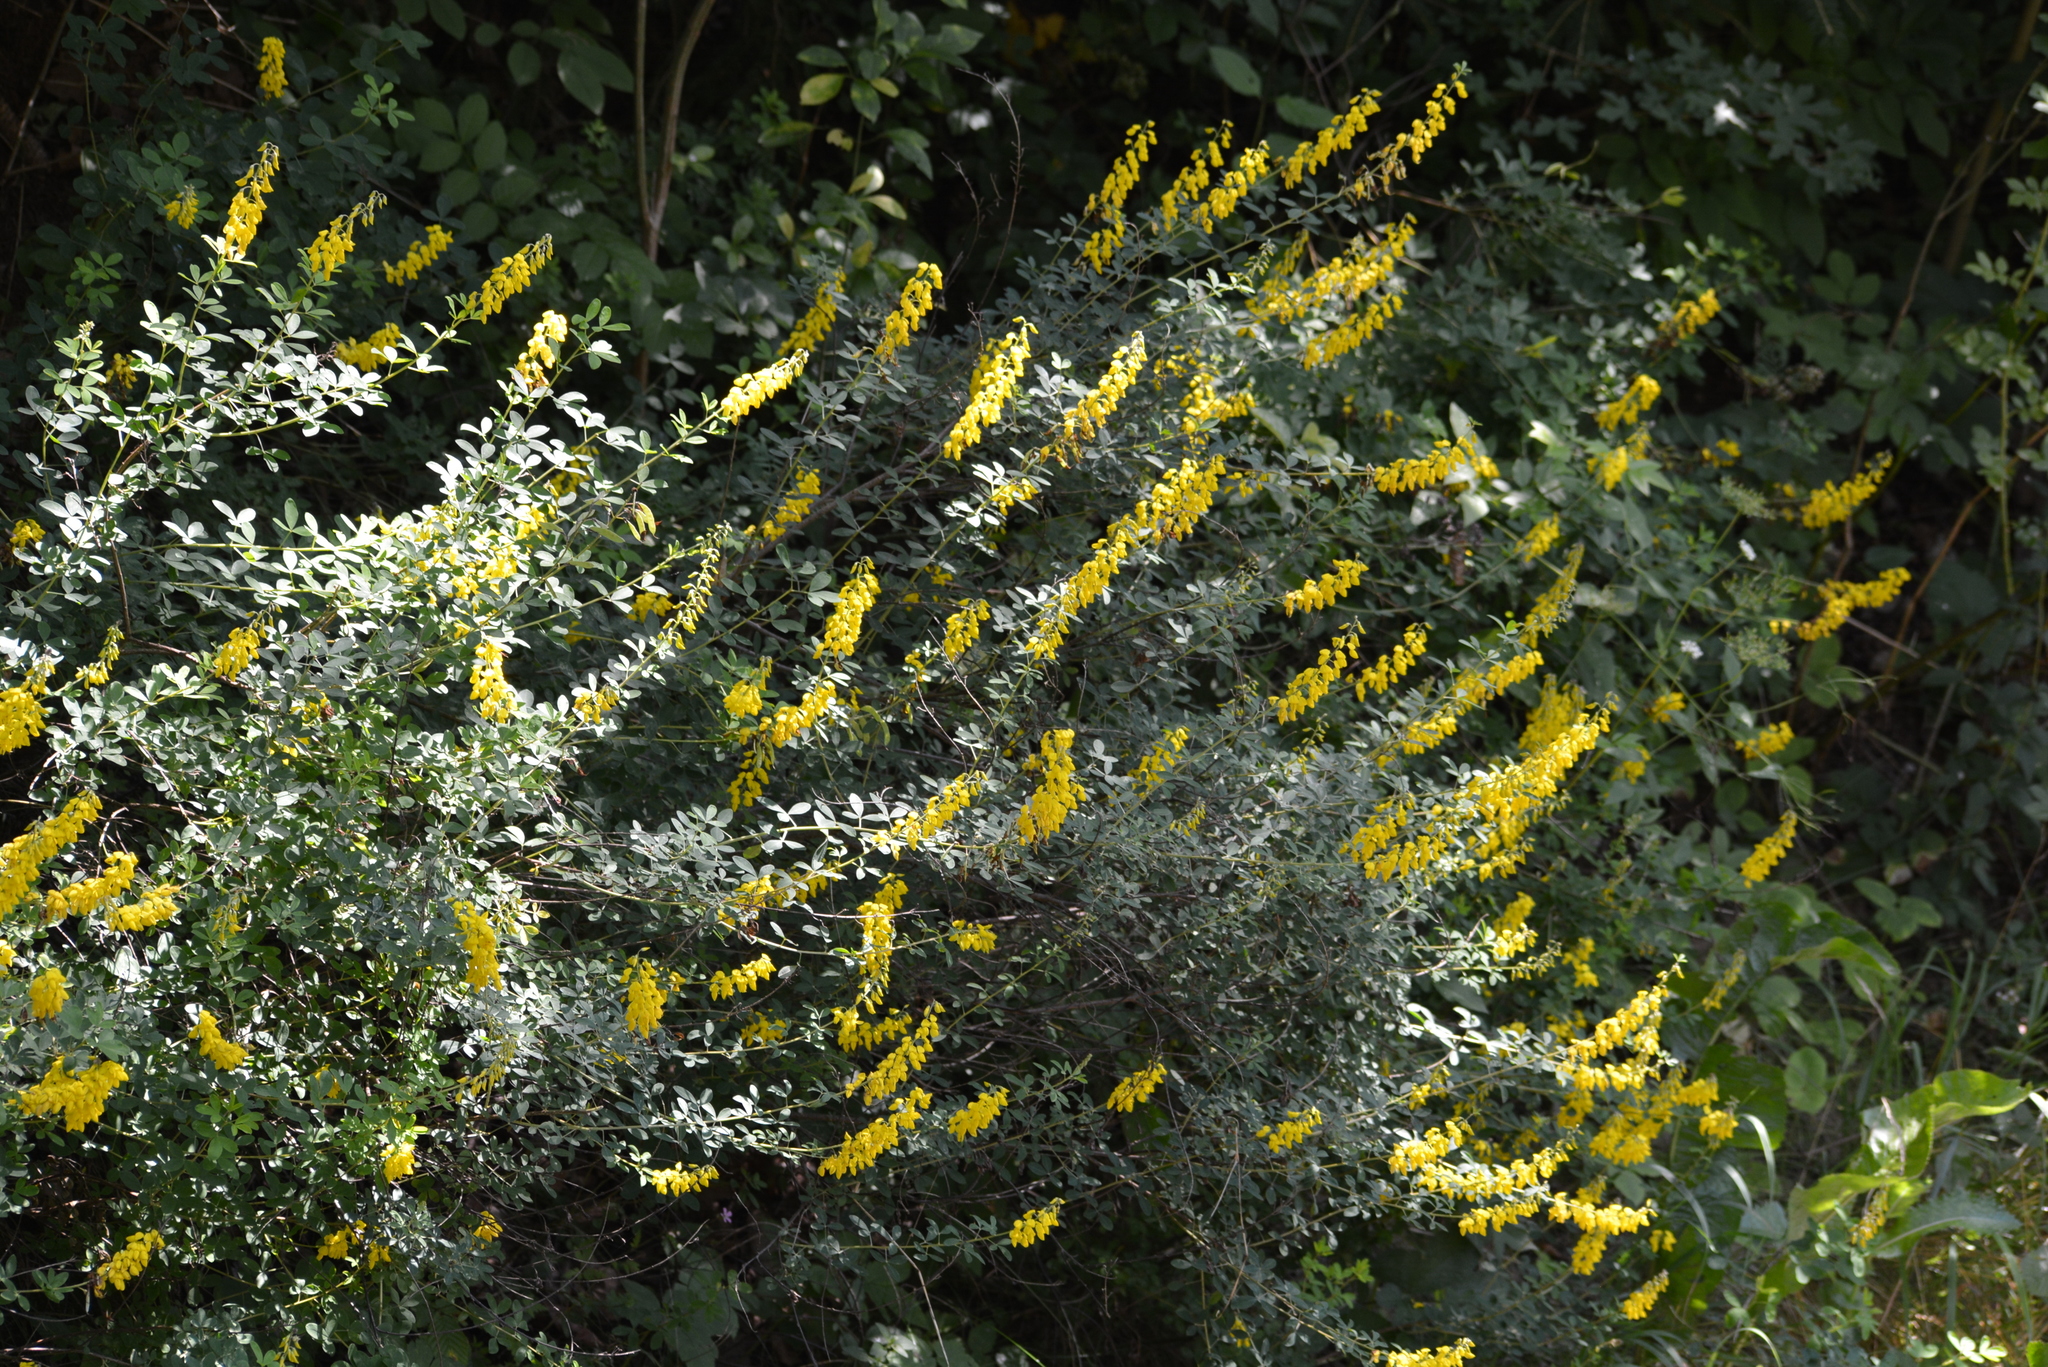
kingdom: Plantae
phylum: Tracheophyta
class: Magnoliopsida
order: Fabales
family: Fabaceae
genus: Cytisus
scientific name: Cytisus nigricans
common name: Black broom
